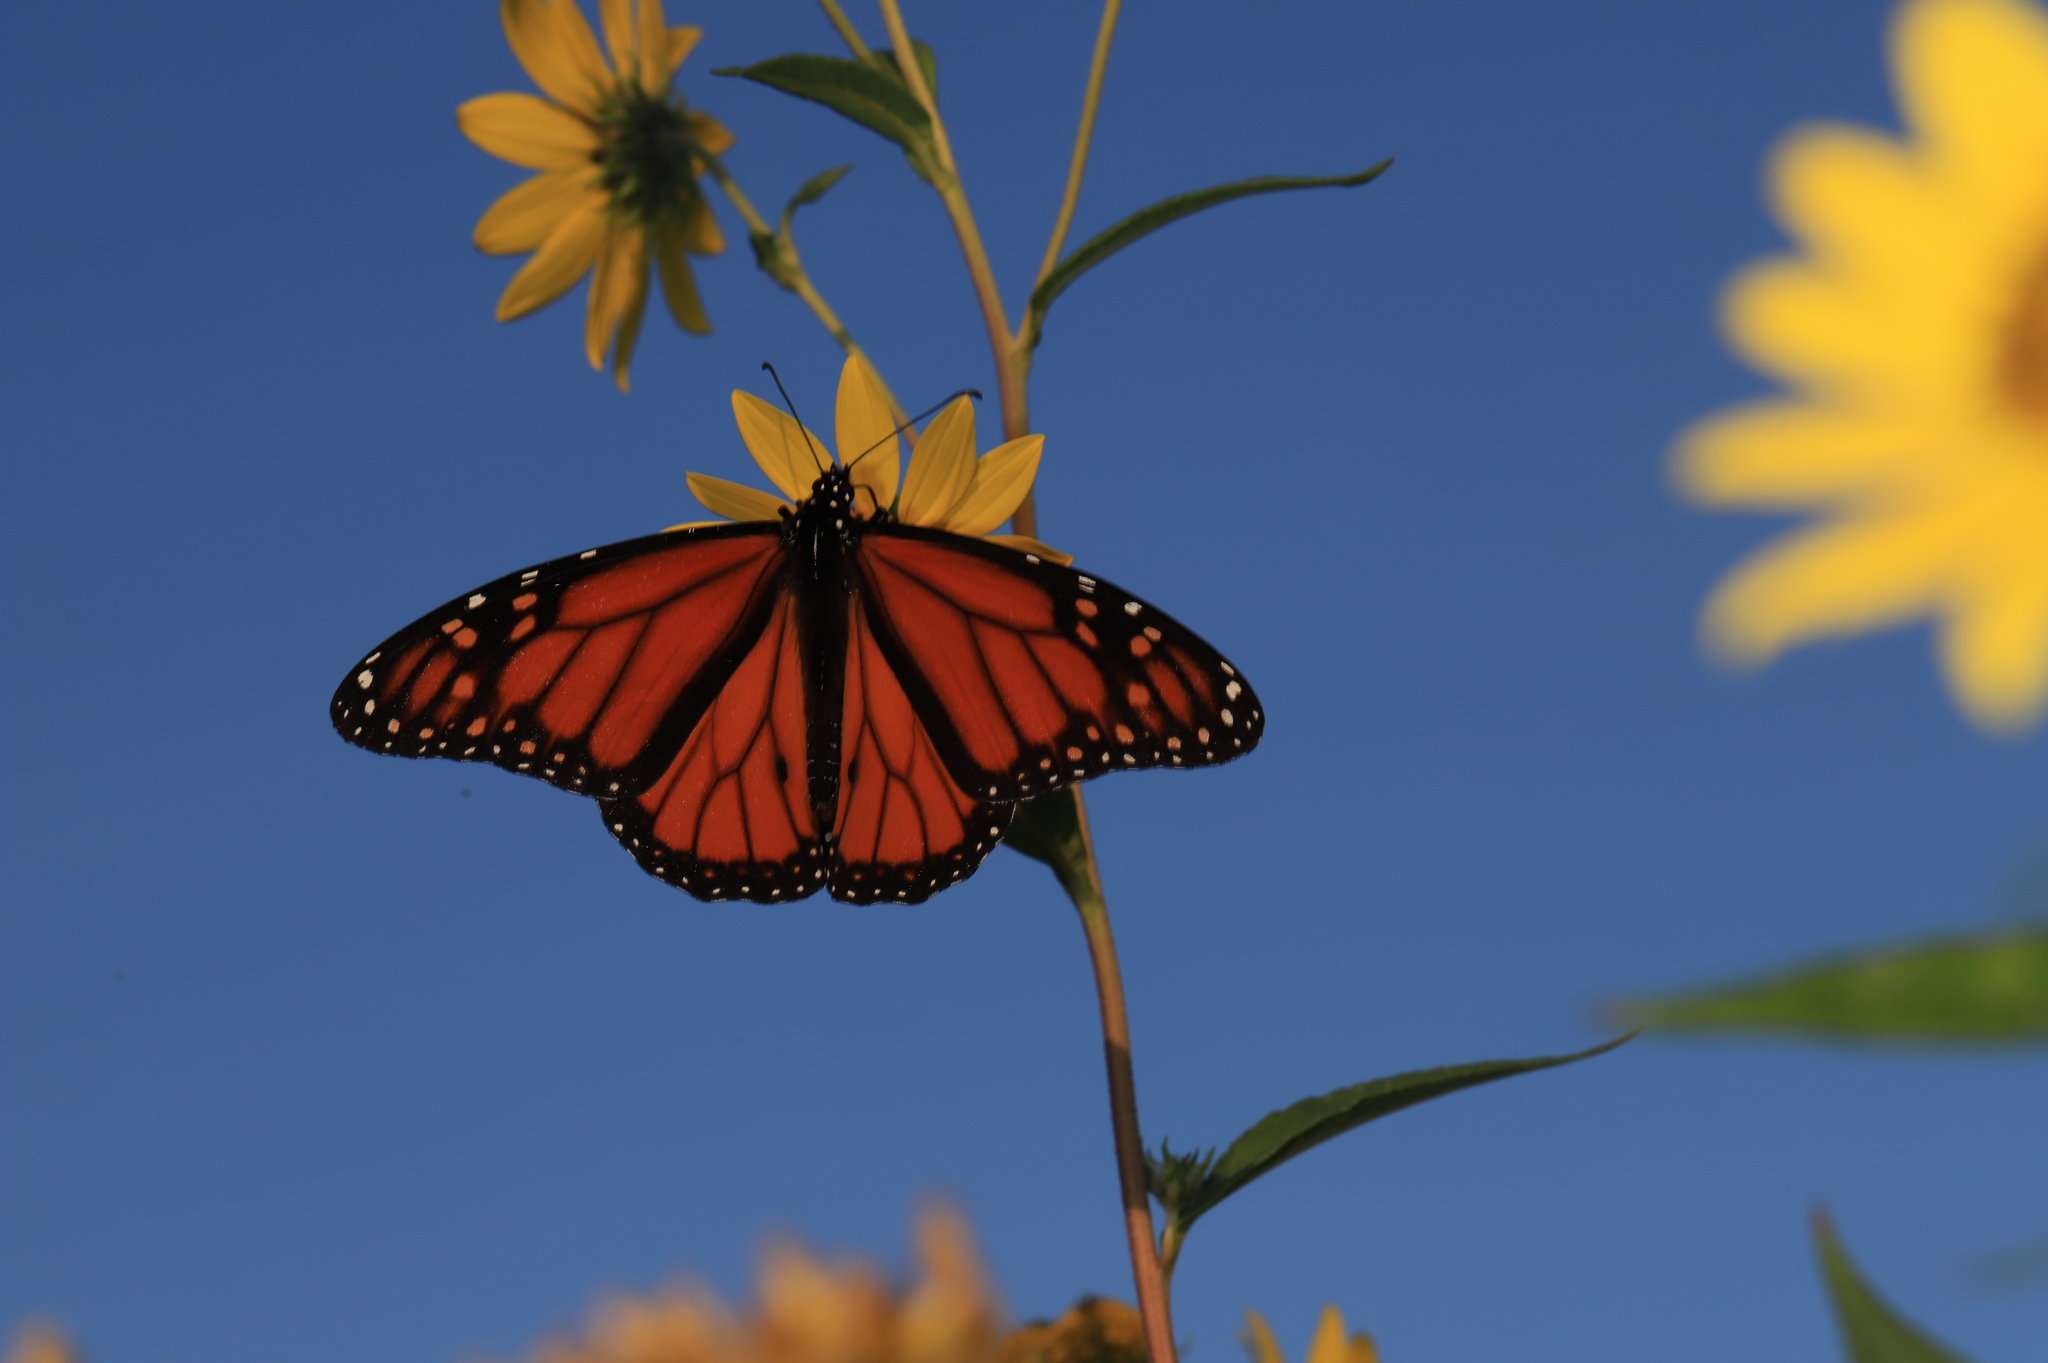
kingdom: Animalia
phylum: Arthropoda
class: Insecta
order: Lepidoptera
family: Nymphalidae
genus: Danaus
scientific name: Danaus plexippus
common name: Monarch
